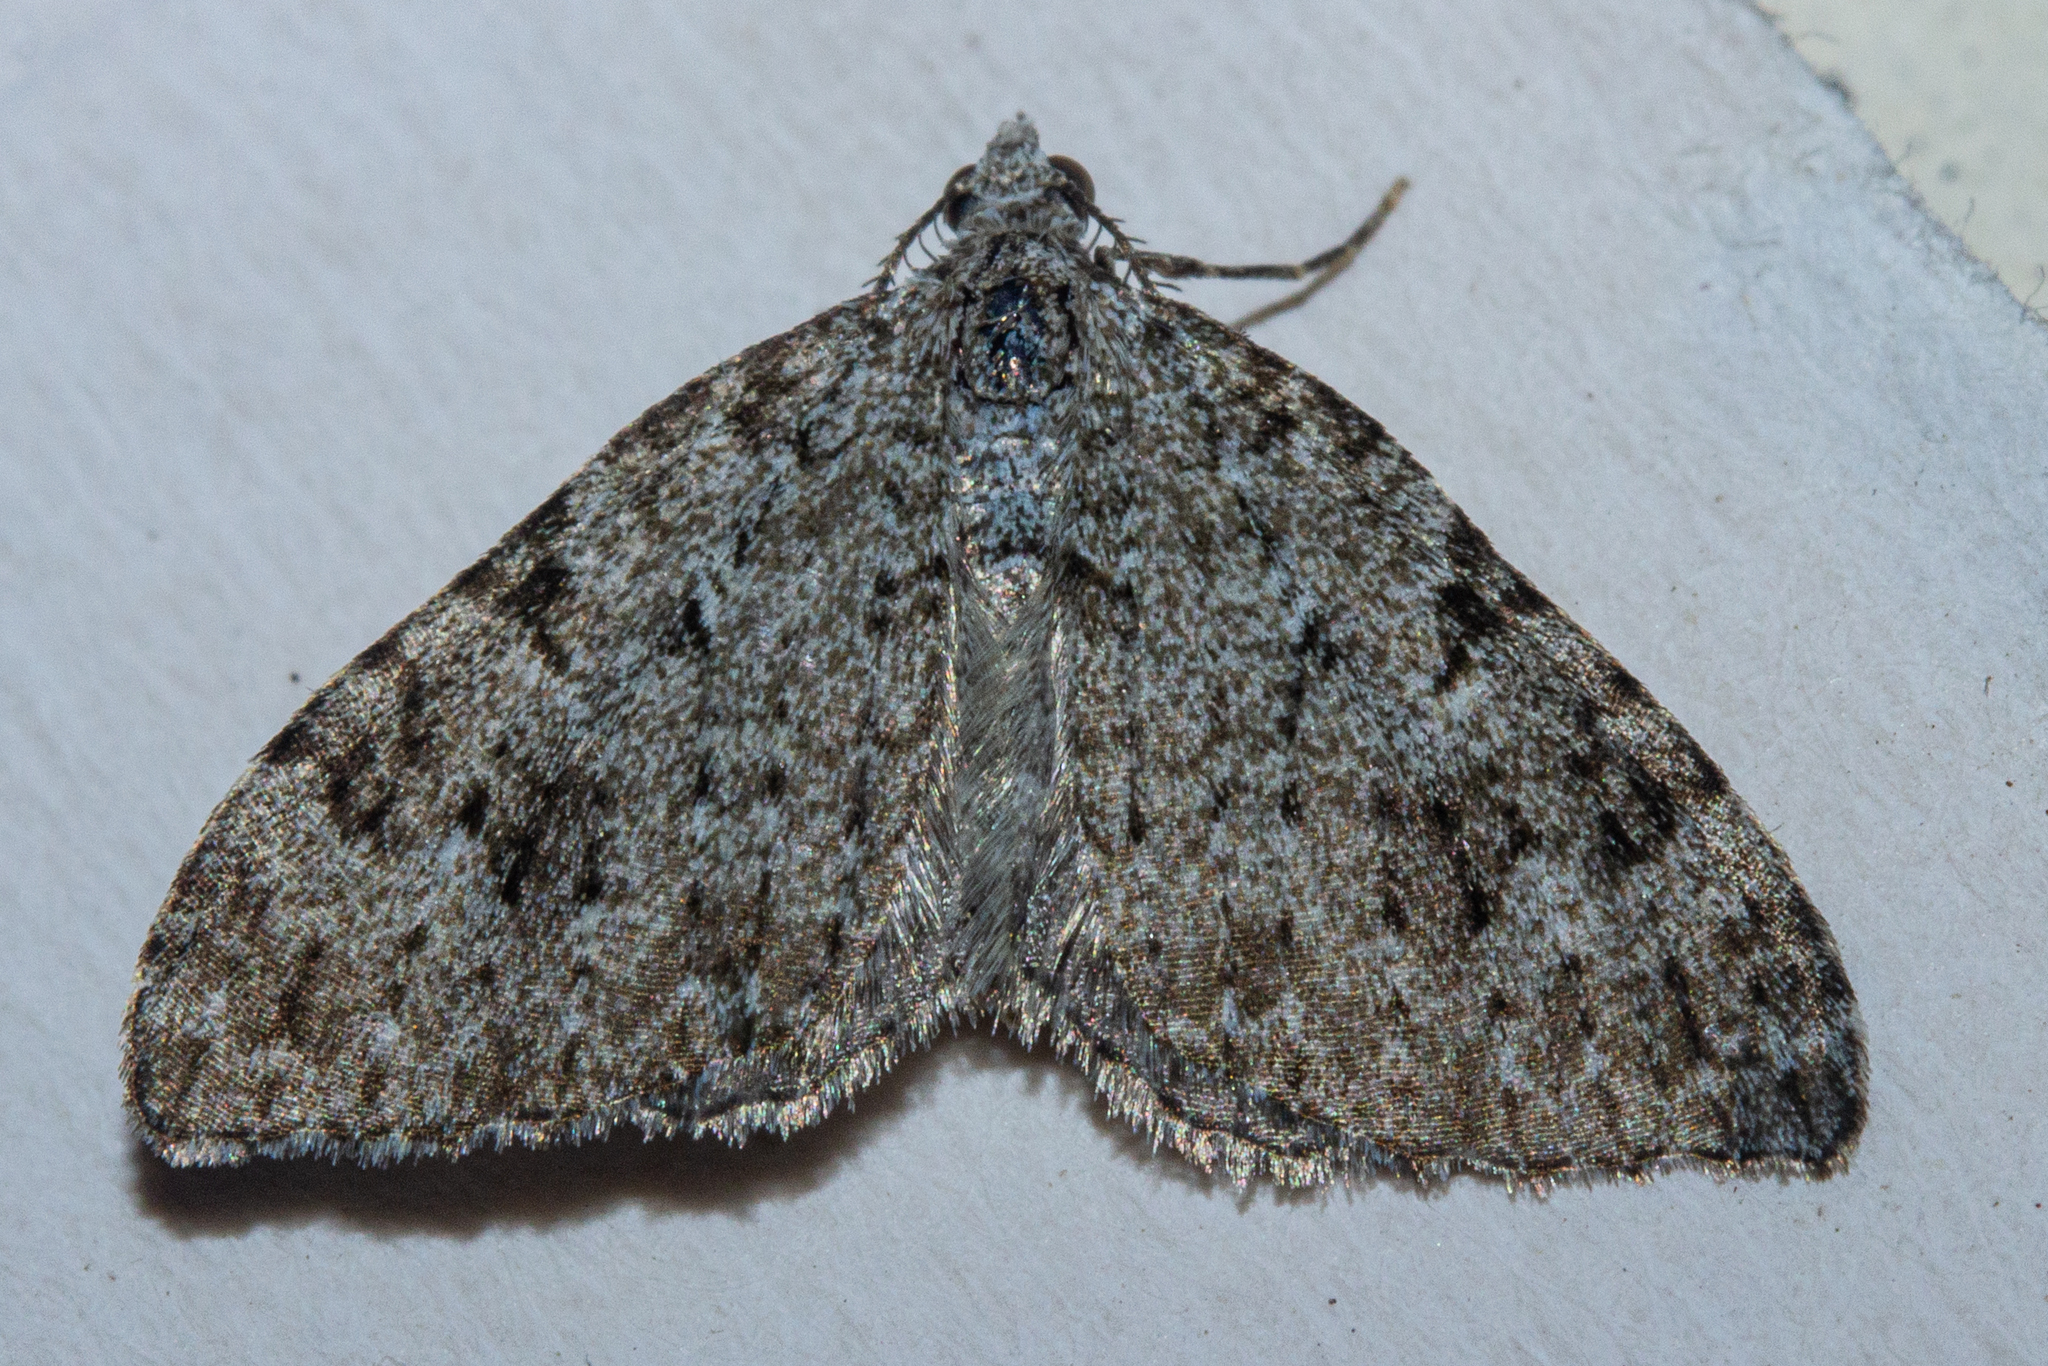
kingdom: Animalia
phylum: Arthropoda
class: Insecta
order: Lepidoptera
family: Geometridae
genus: Helastia
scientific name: Helastia cinerearia
